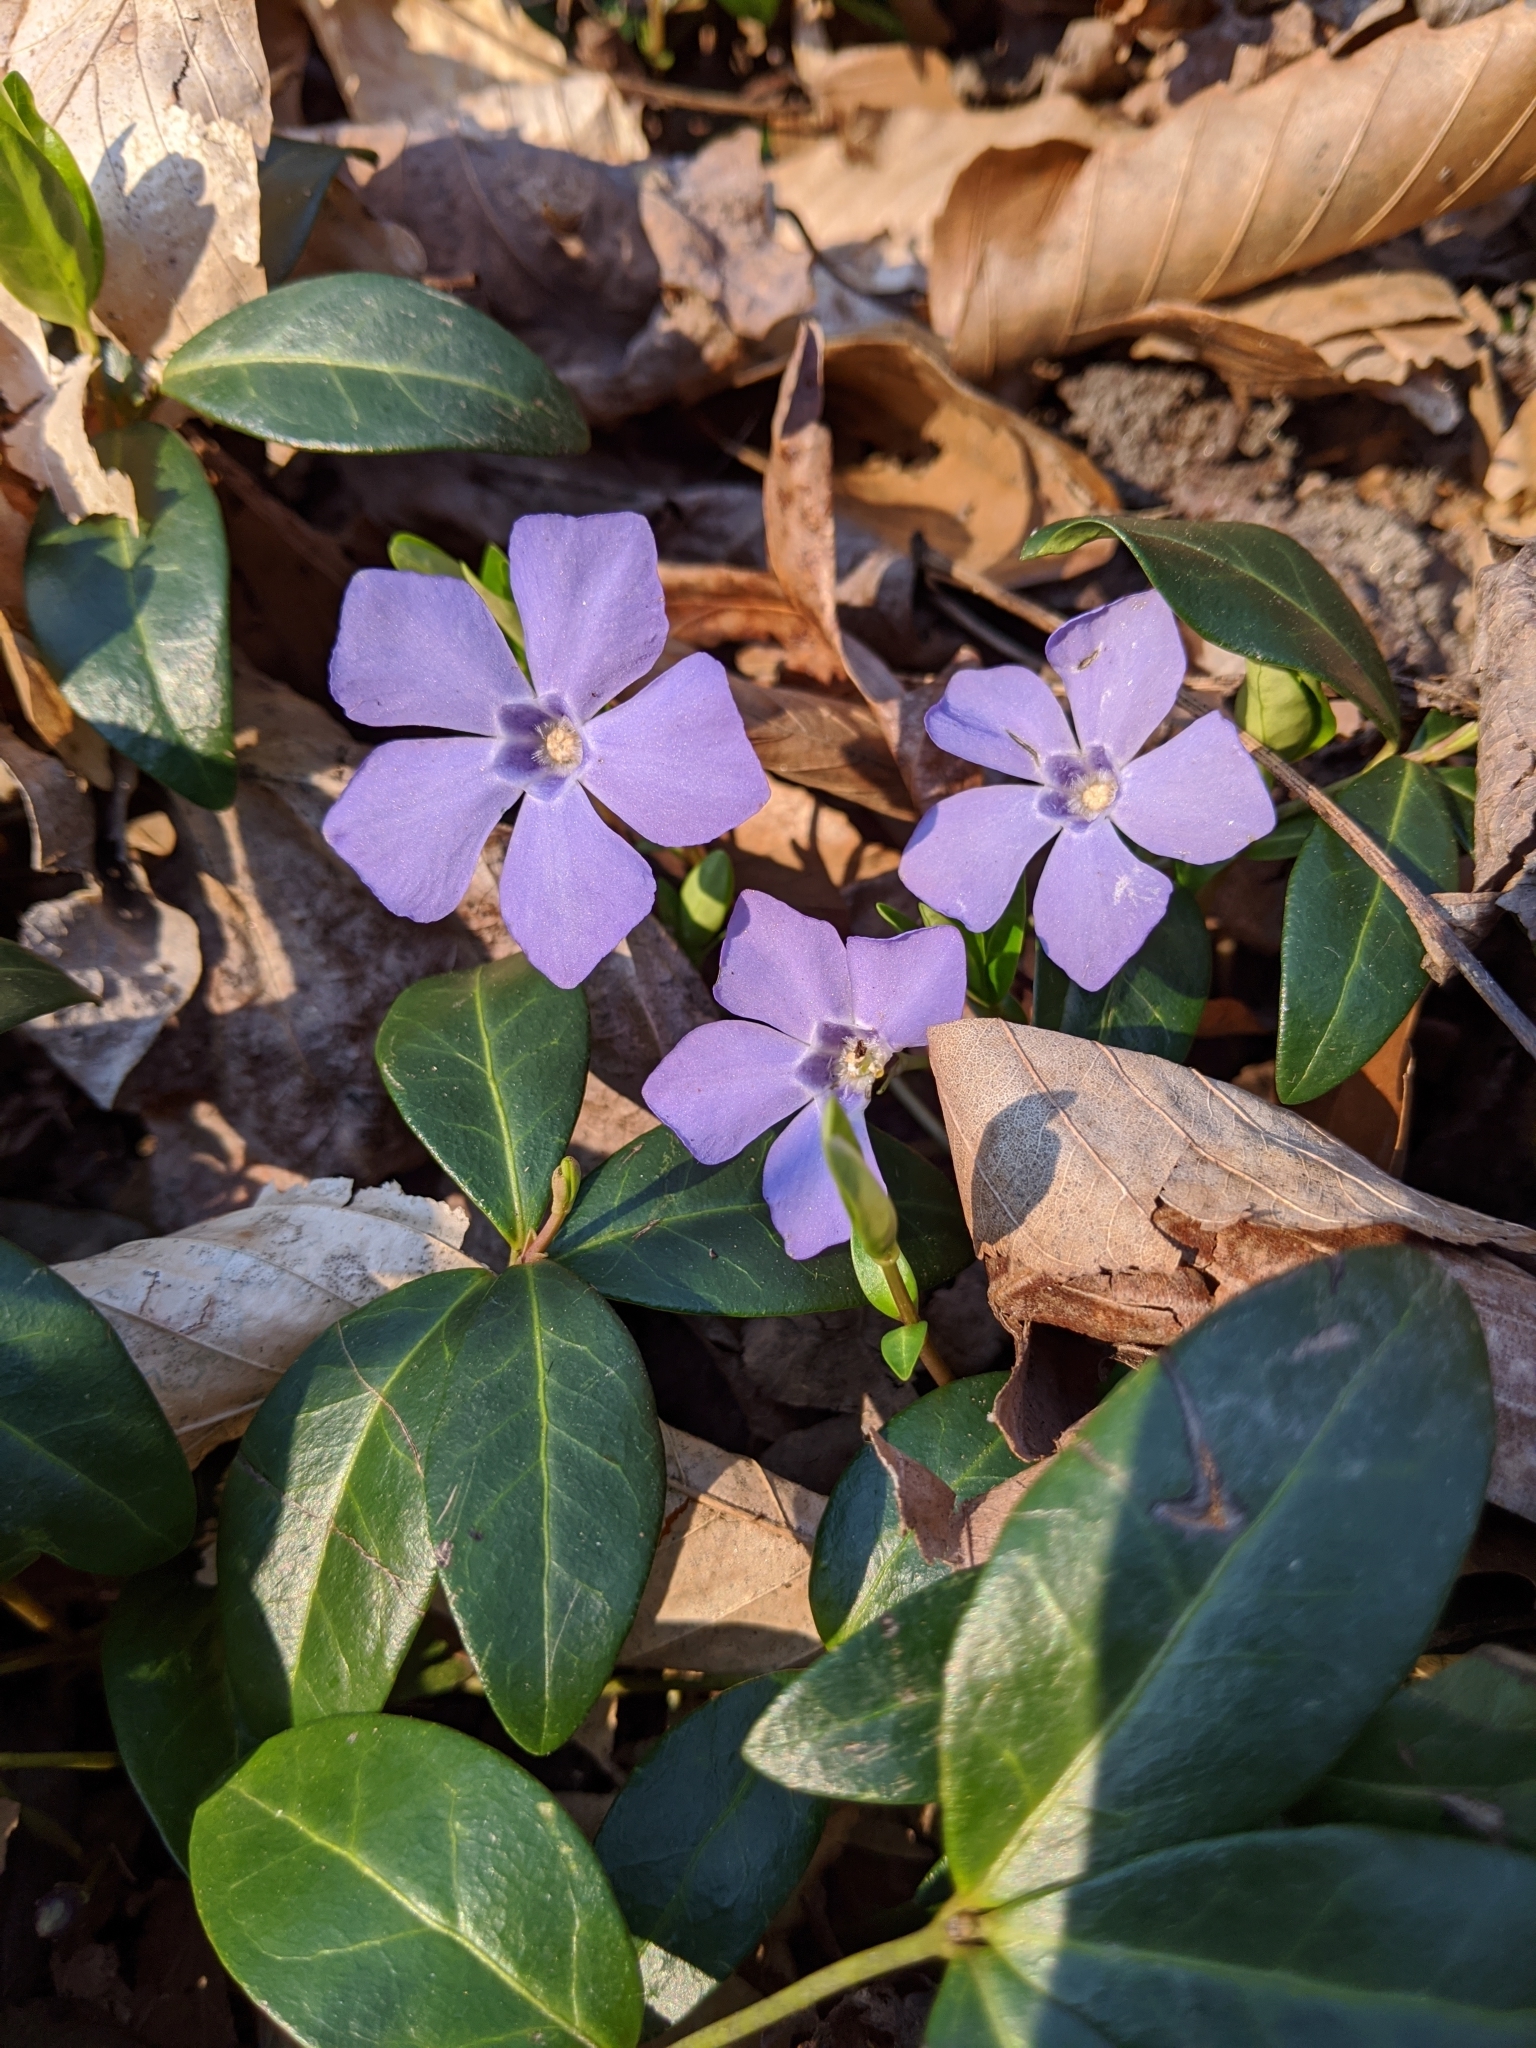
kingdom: Plantae
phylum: Tracheophyta
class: Magnoliopsida
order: Gentianales
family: Apocynaceae
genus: Vinca
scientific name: Vinca minor
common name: Lesser periwinkle
